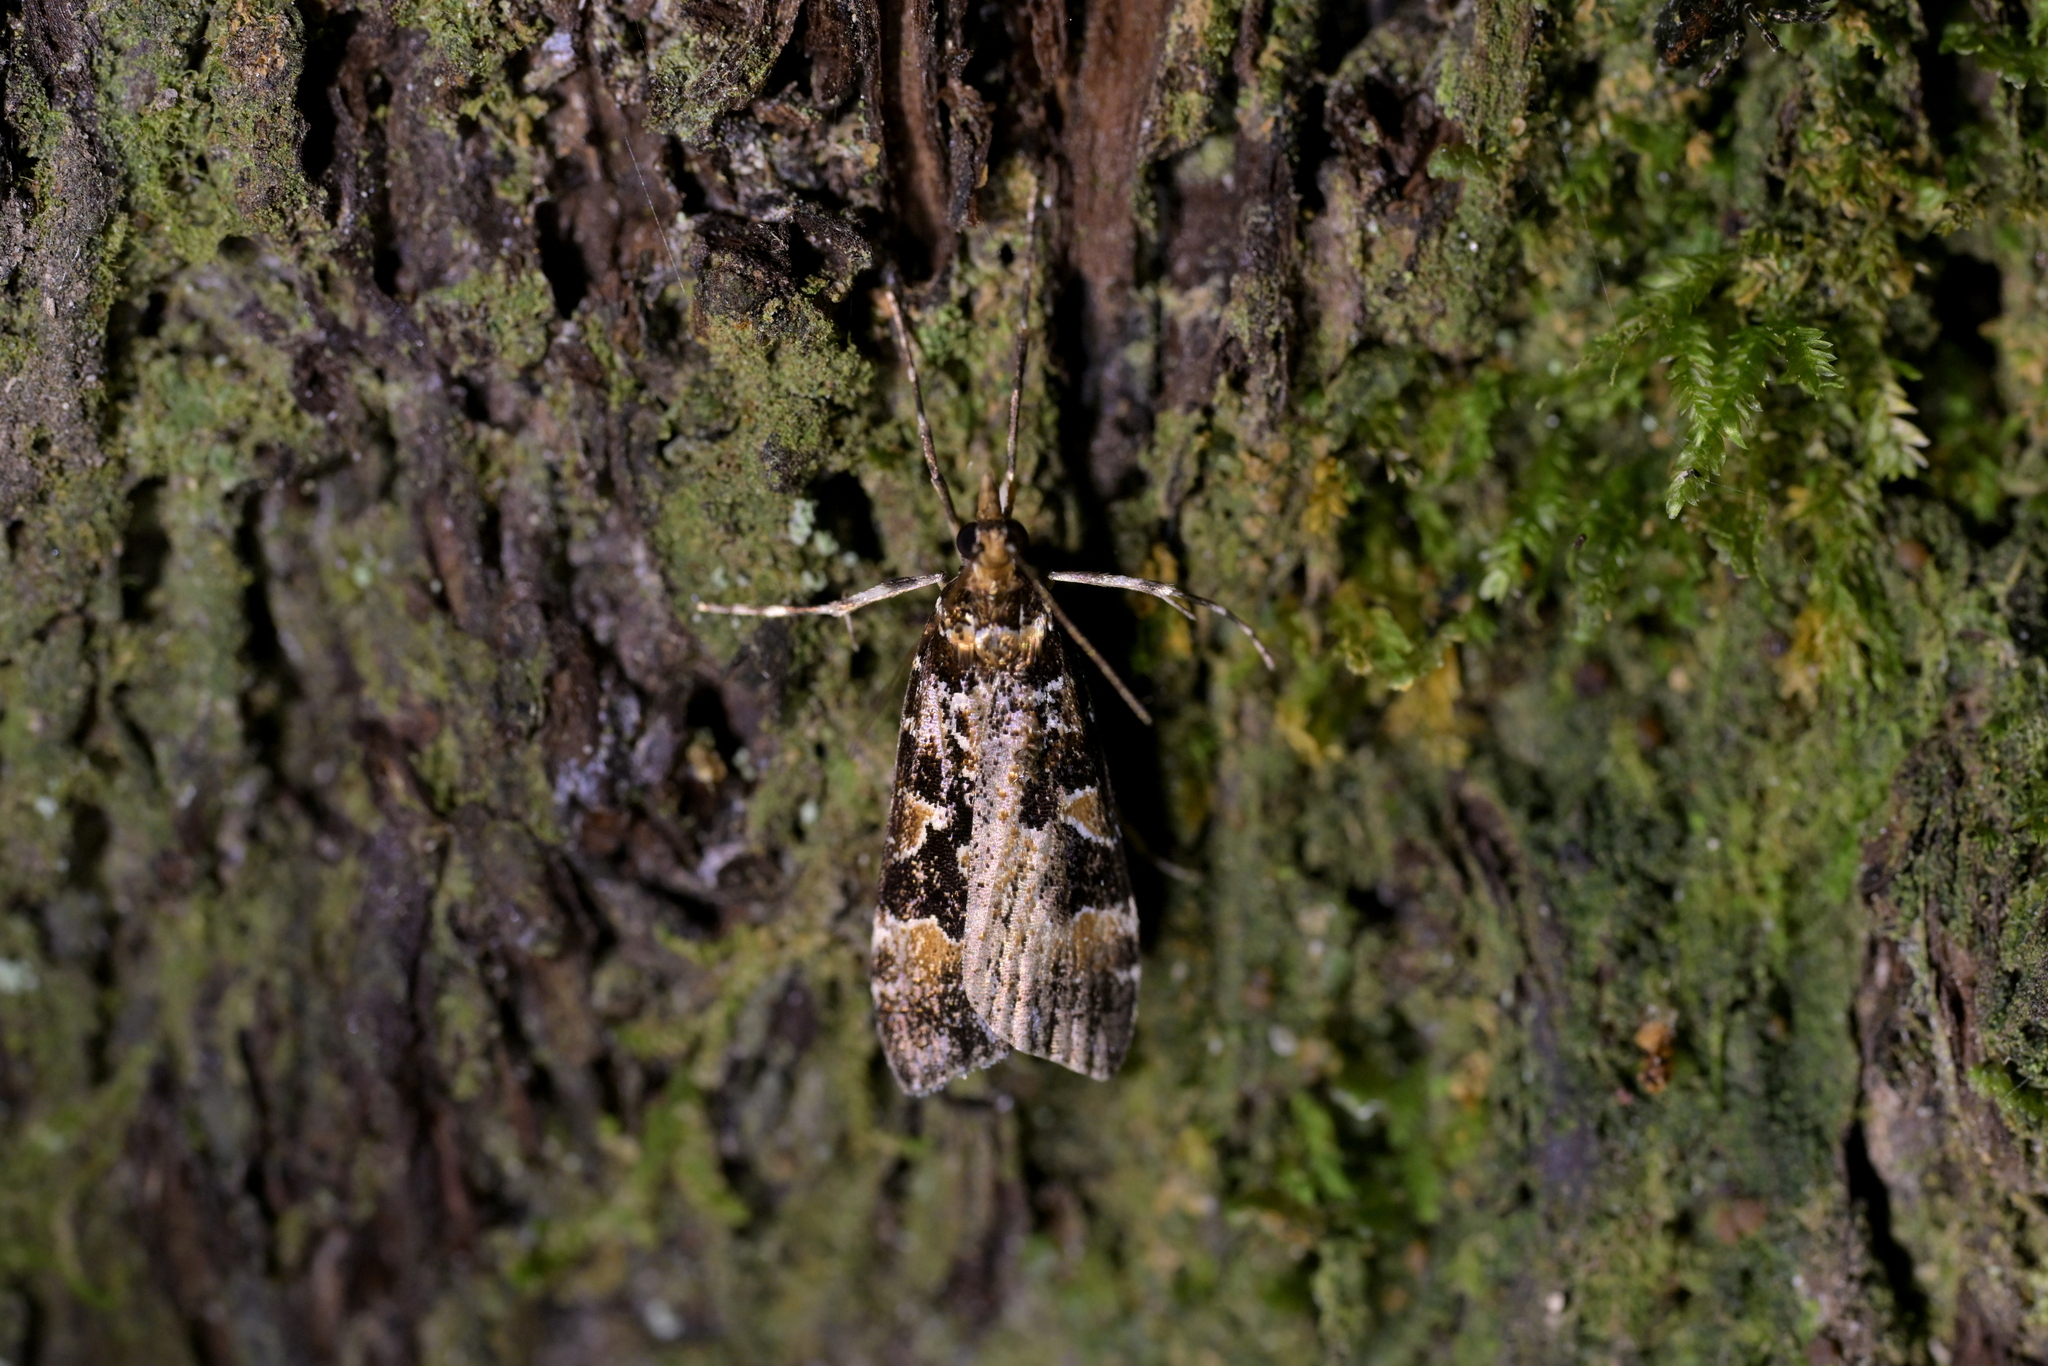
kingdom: Animalia
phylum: Arthropoda
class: Insecta
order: Lepidoptera
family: Crambidae
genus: Scoparia
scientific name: Scoparia ustimacula
